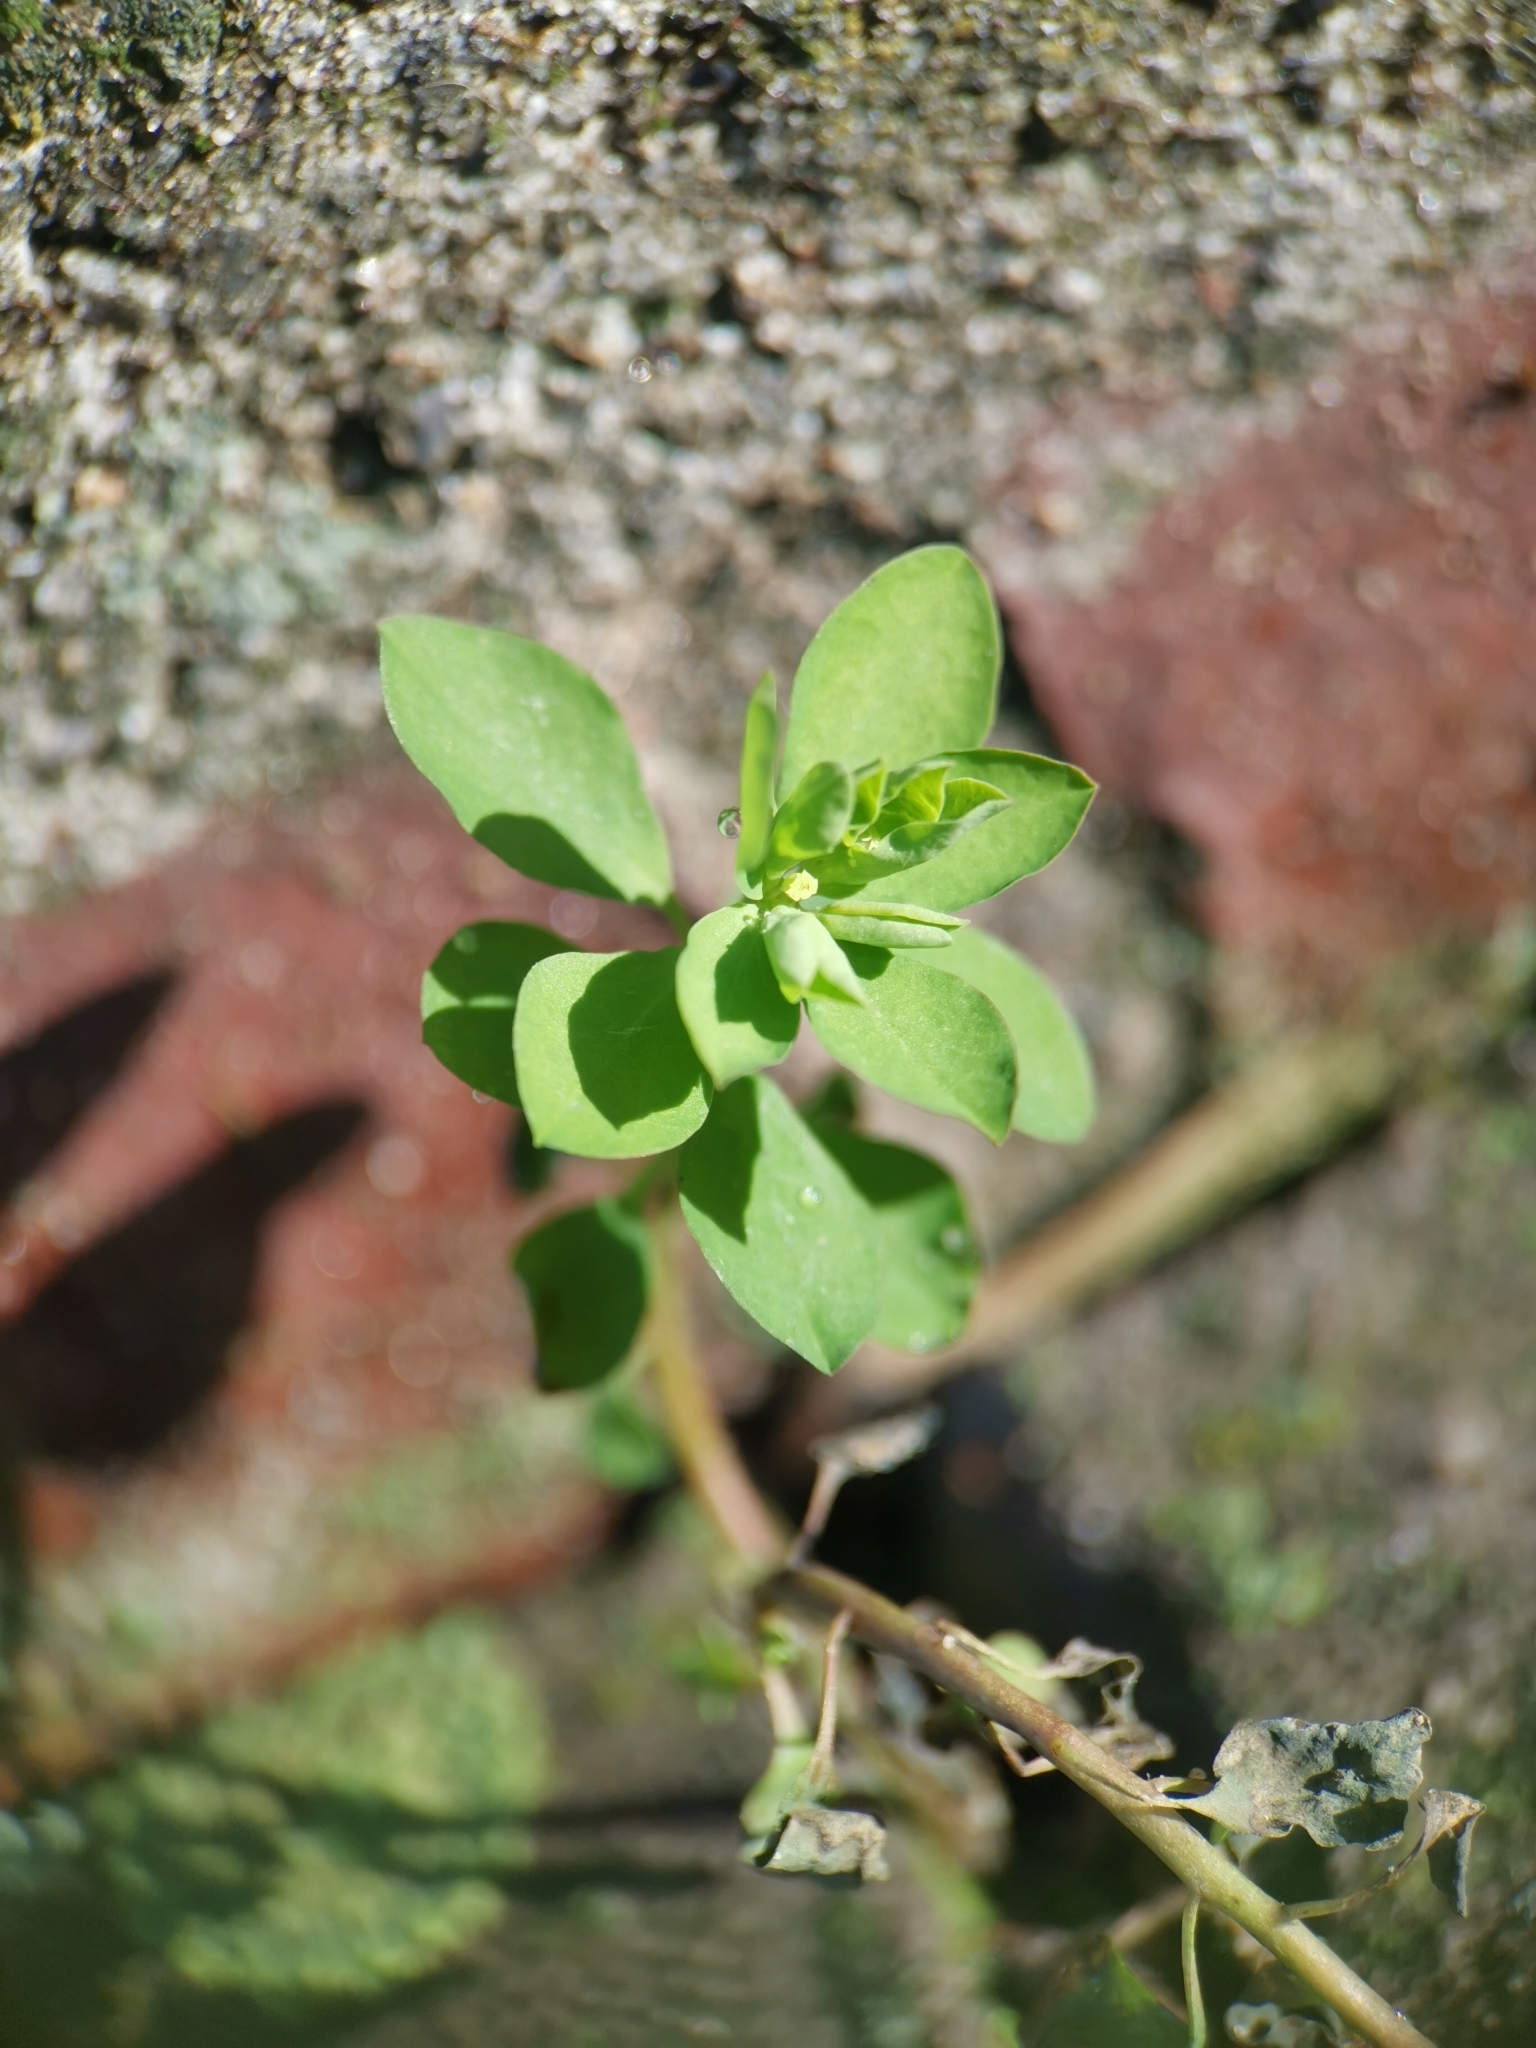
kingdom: Plantae
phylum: Tracheophyta
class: Magnoliopsida
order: Malpighiales
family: Euphorbiaceae
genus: Euphorbia
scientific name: Euphorbia peplus
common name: Petty spurge
